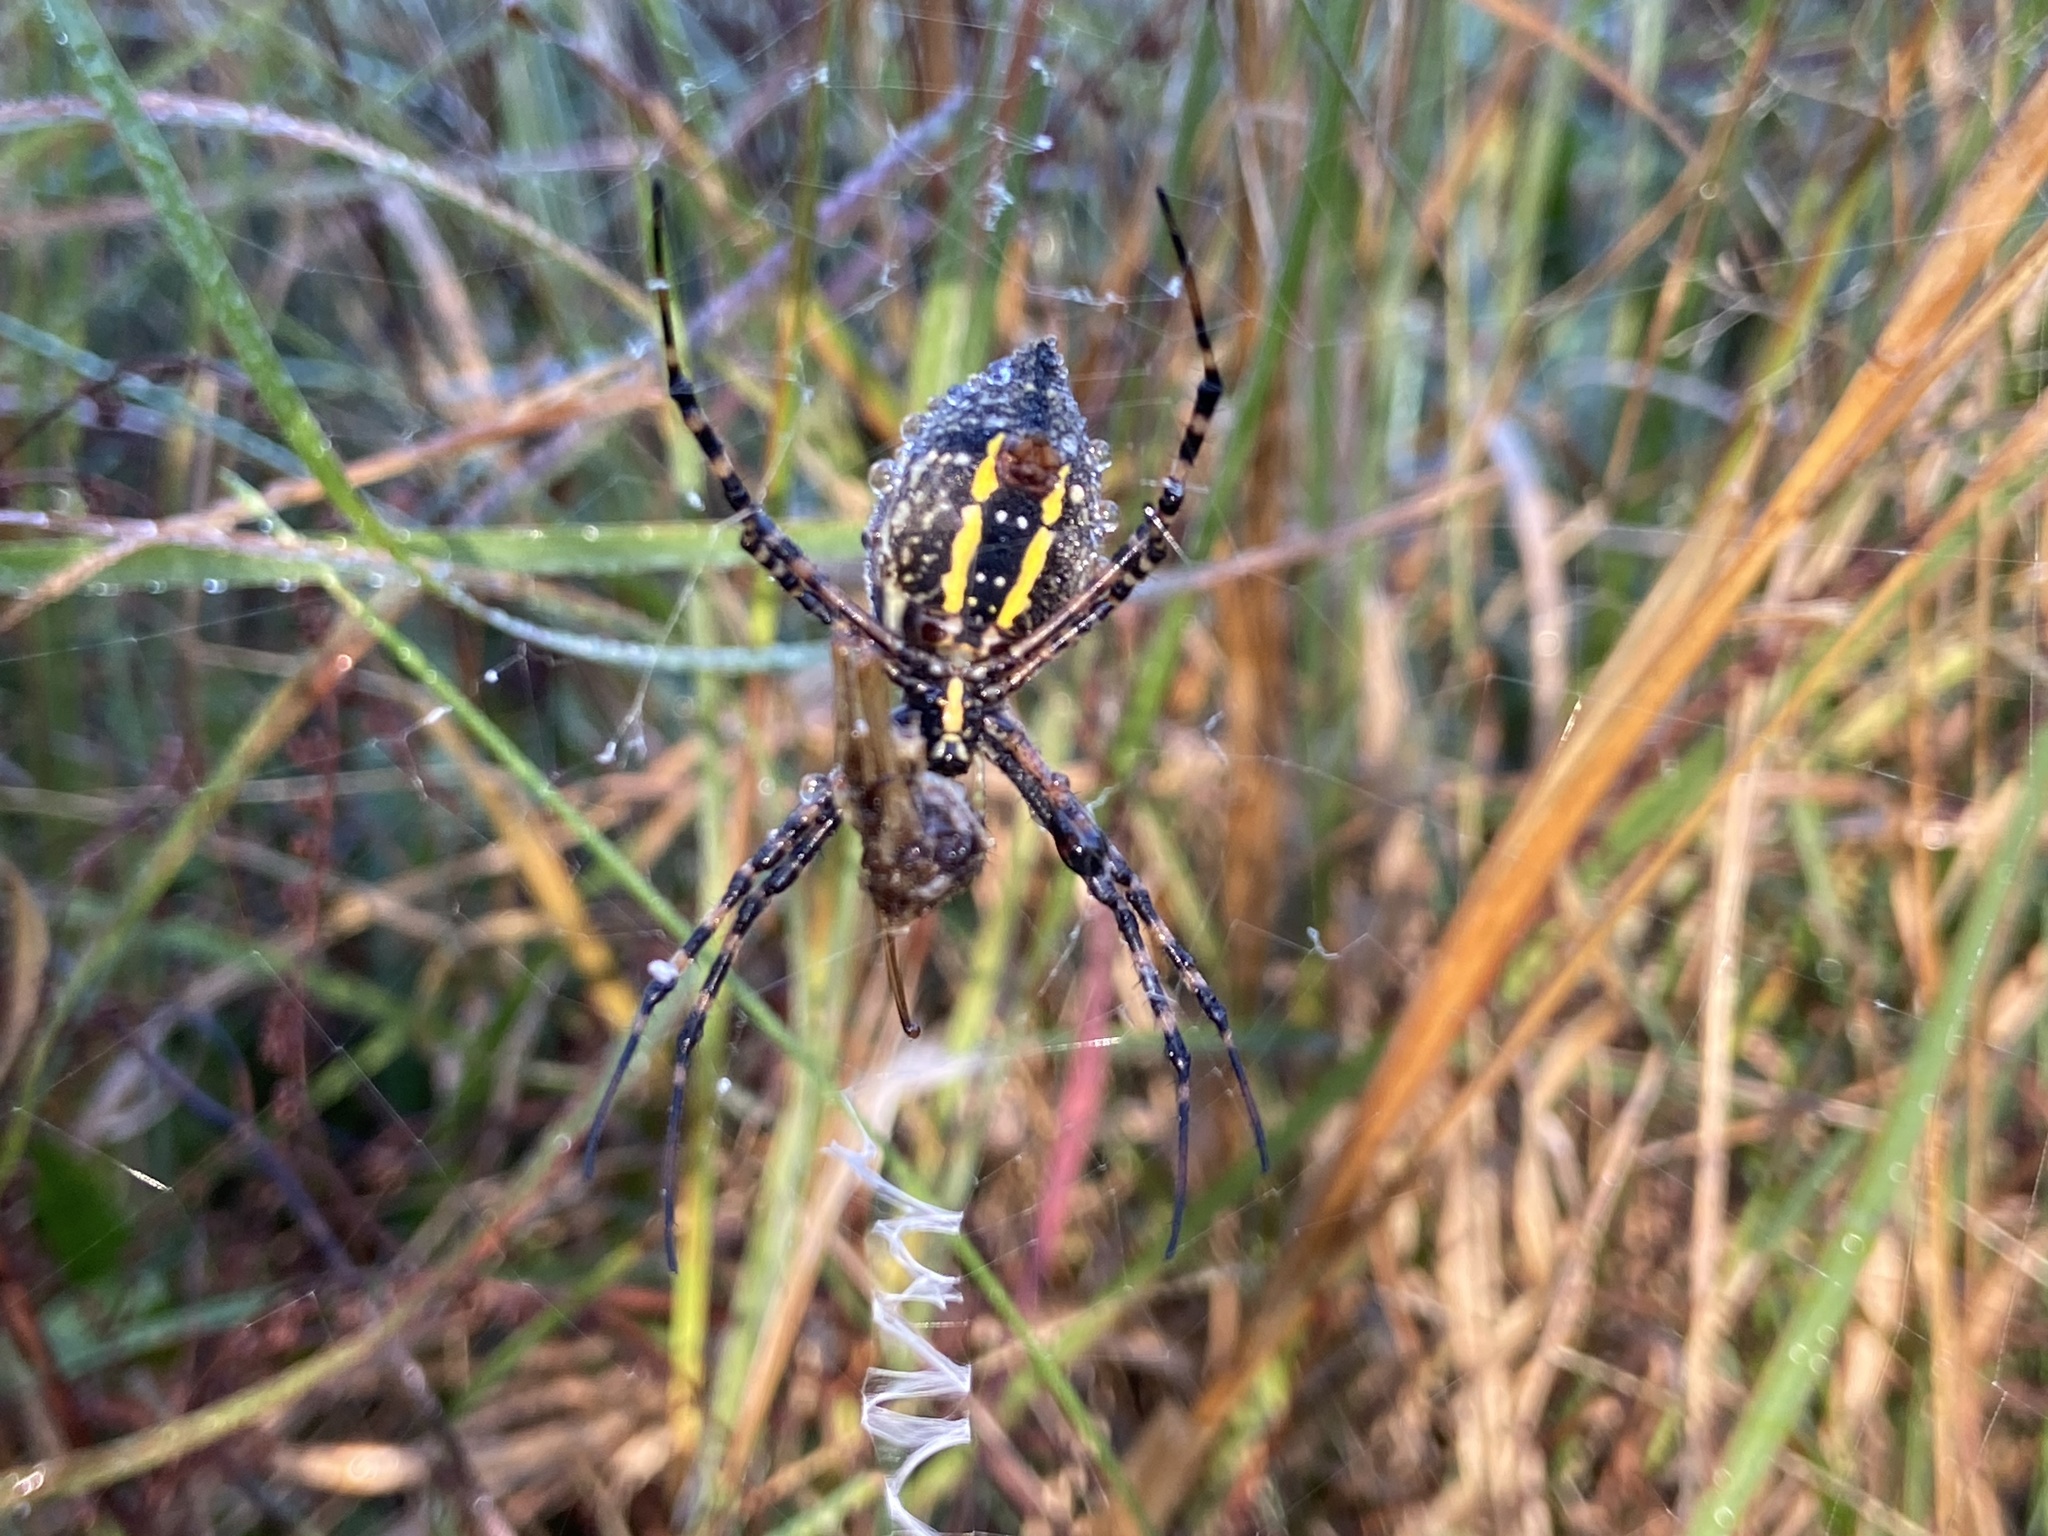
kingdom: Animalia
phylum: Arthropoda
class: Arachnida
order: Araneae
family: Araneidae
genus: Argiope
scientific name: Argiope aurantia
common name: Orb weavers
